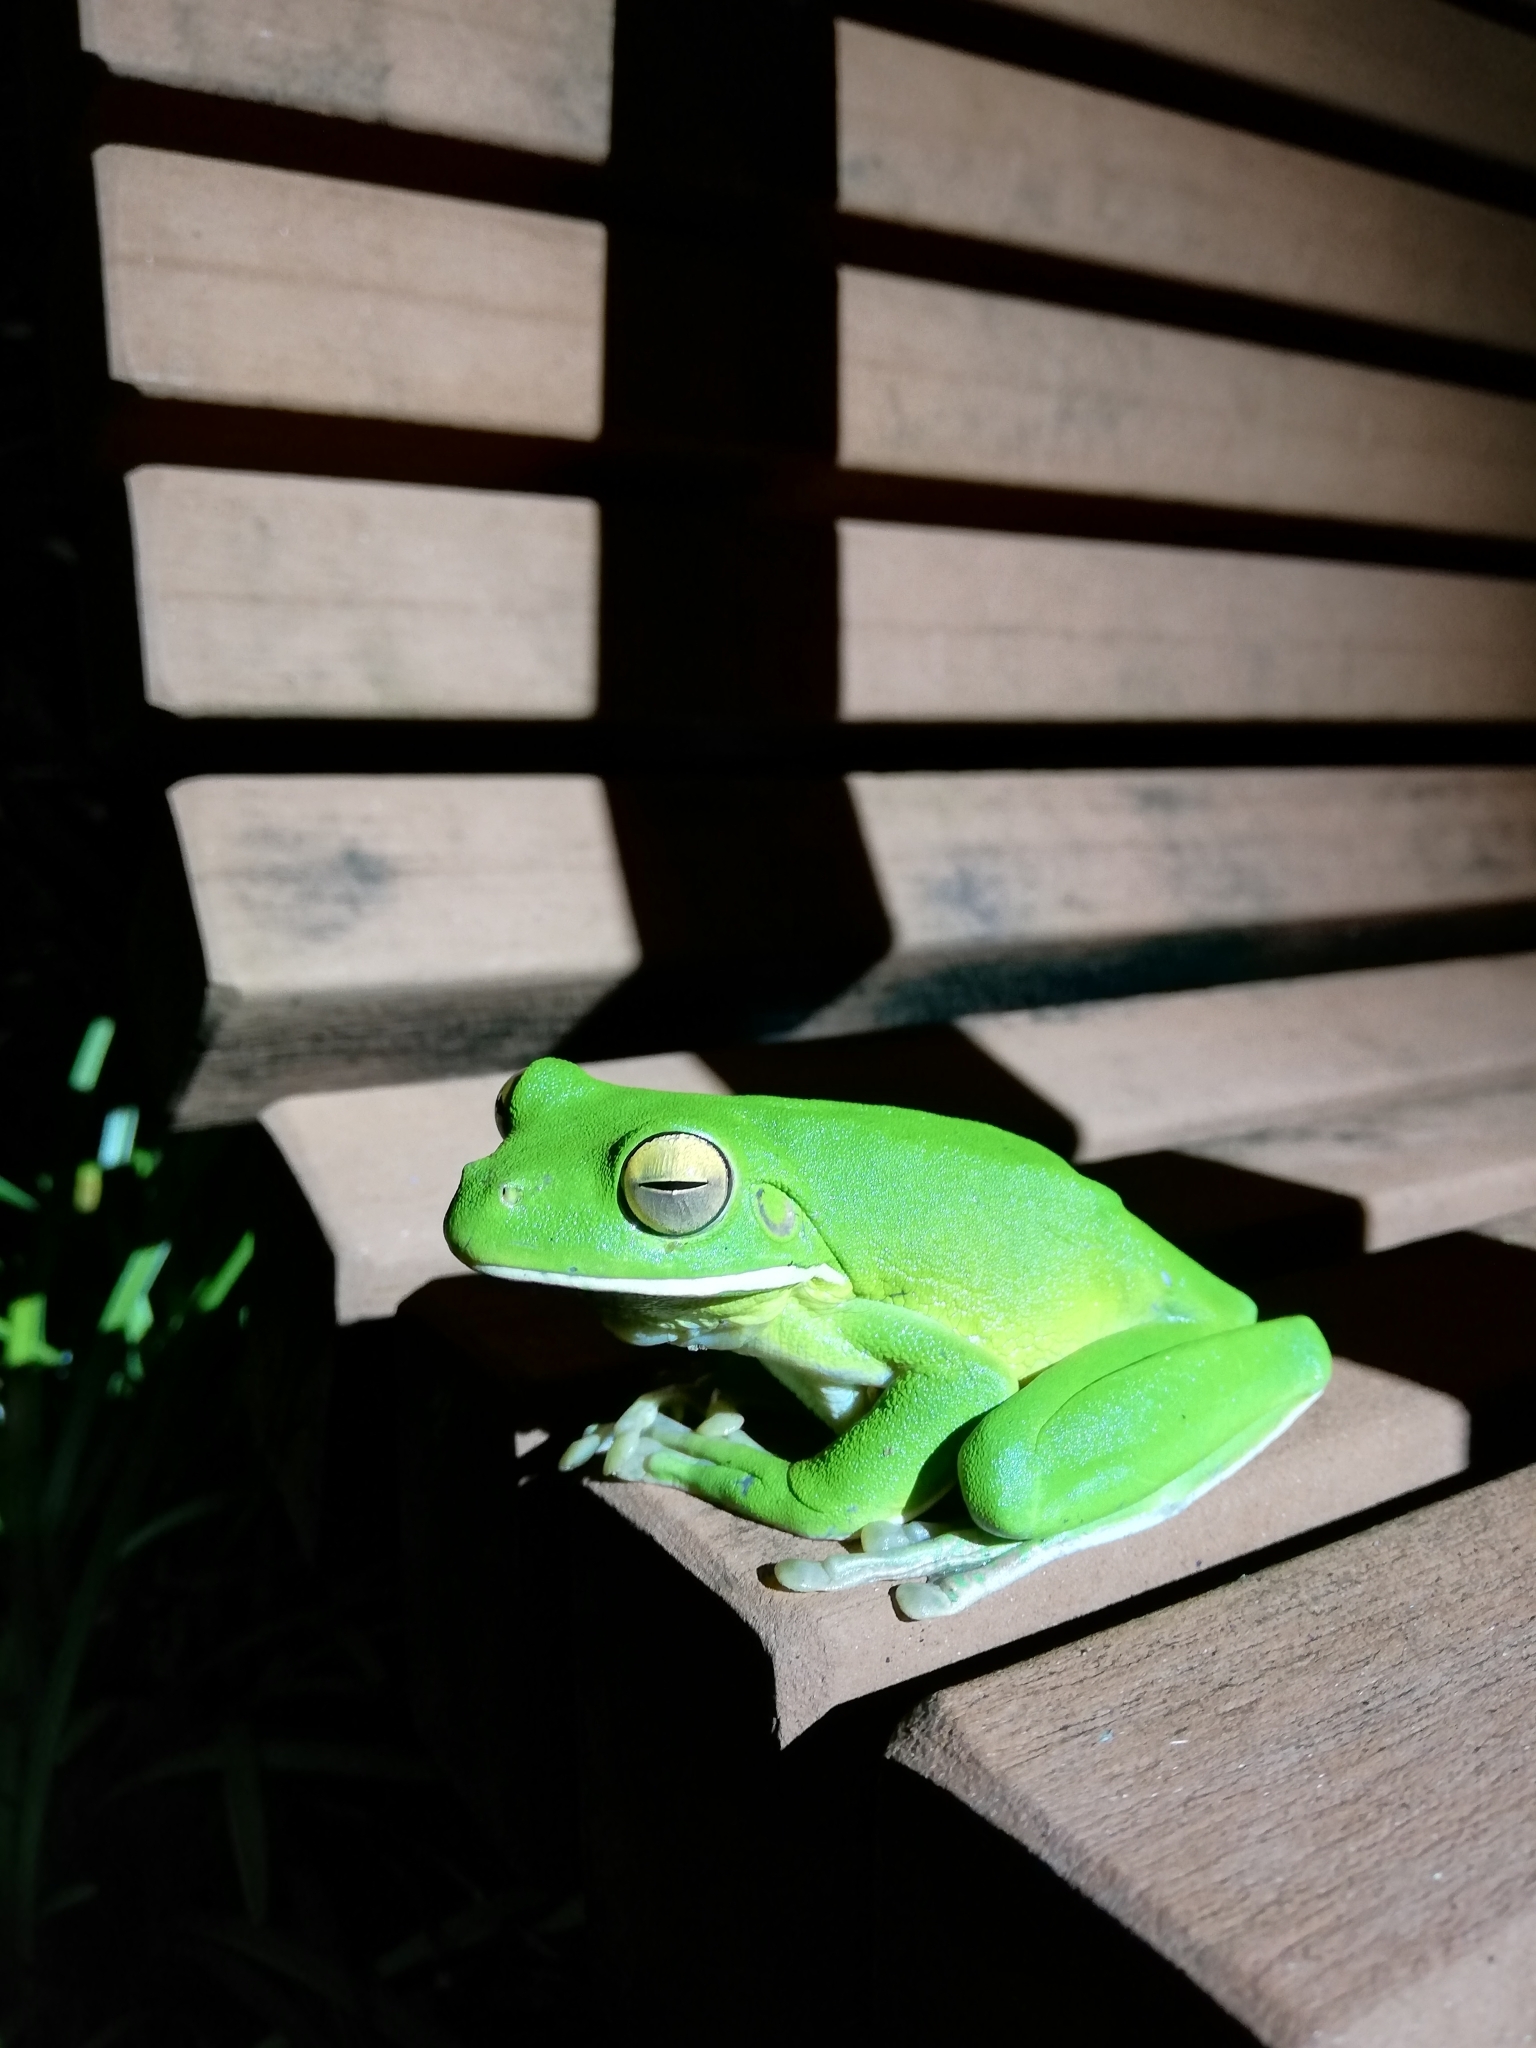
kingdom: Animalia
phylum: Chordata
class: Amphibia
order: Anura
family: Pelodryadidae
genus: Nyctimystes
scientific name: Nyctimystes infrafrenatus
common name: Australian giant treefrog
